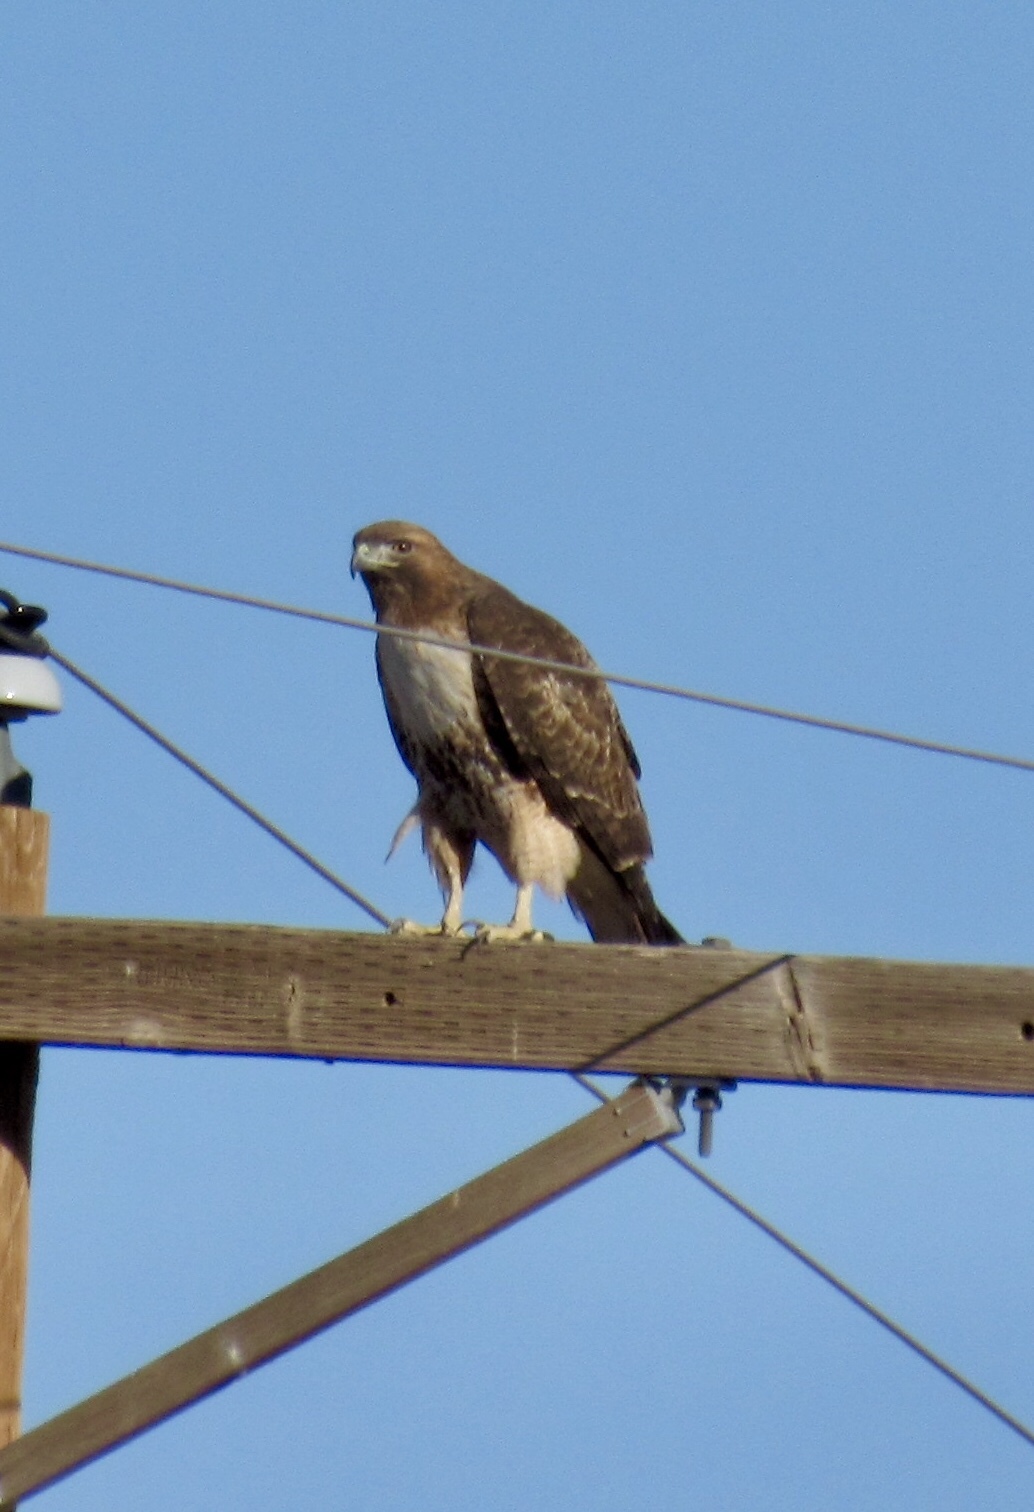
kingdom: Animalia
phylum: Chordata
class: Aves
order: Accipitriformes
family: Accipitridae
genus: Buteo
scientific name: Buteo jamaicensis
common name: Red-tailed hawk
